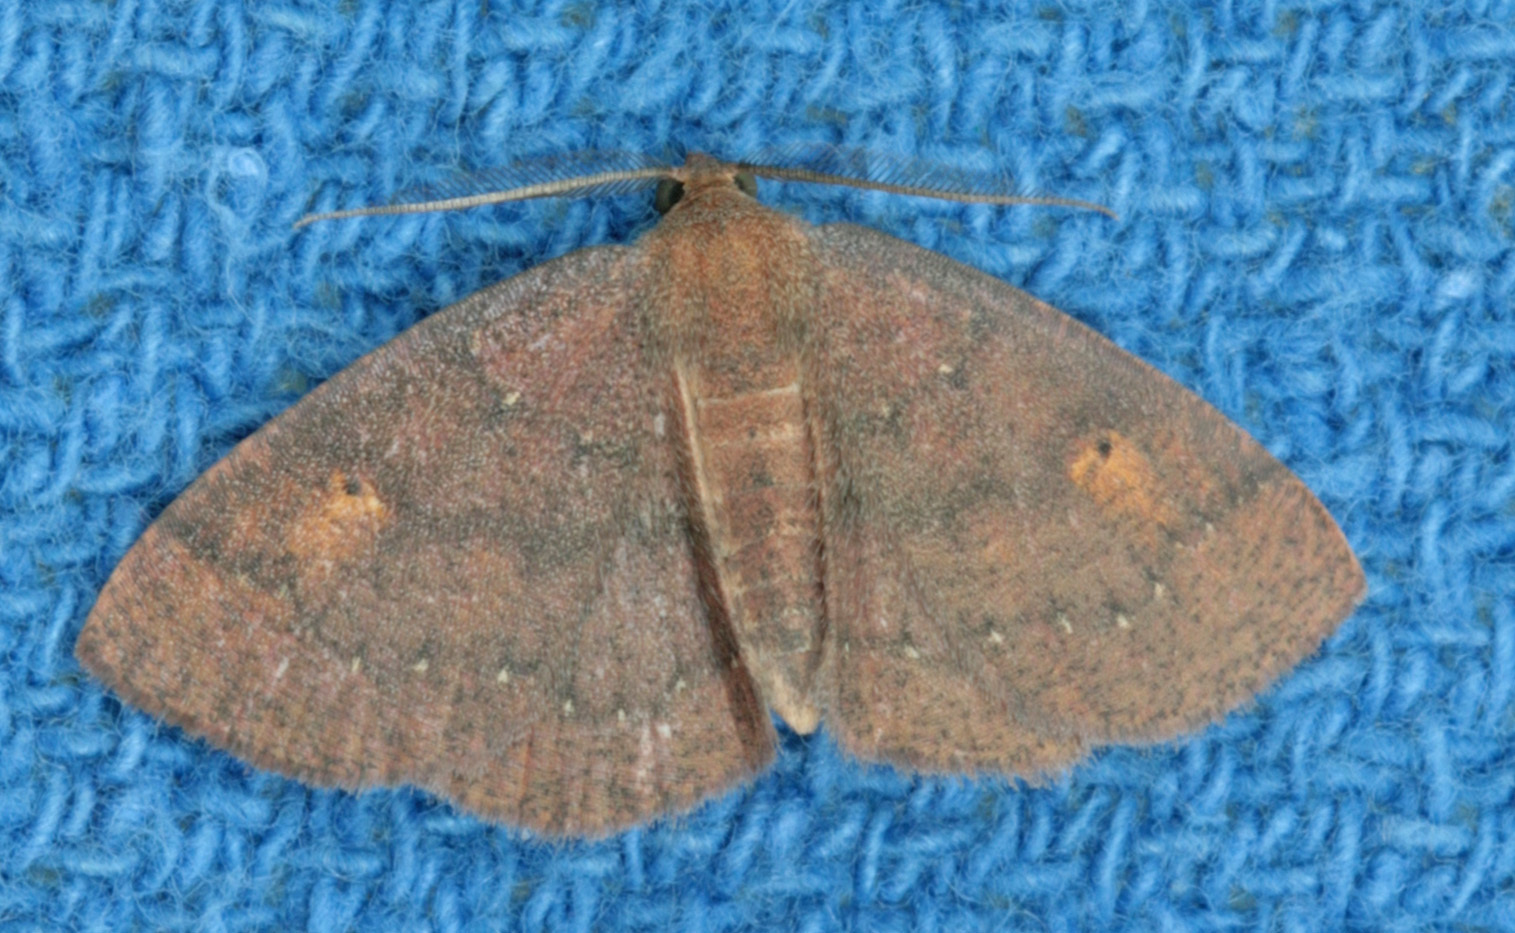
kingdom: Animalia
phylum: Arthropoda
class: Insecta
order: Lepidoptera
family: Geometridae
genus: Ilexia
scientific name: Ilexia intractata
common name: Black-dotted ruddy moth
